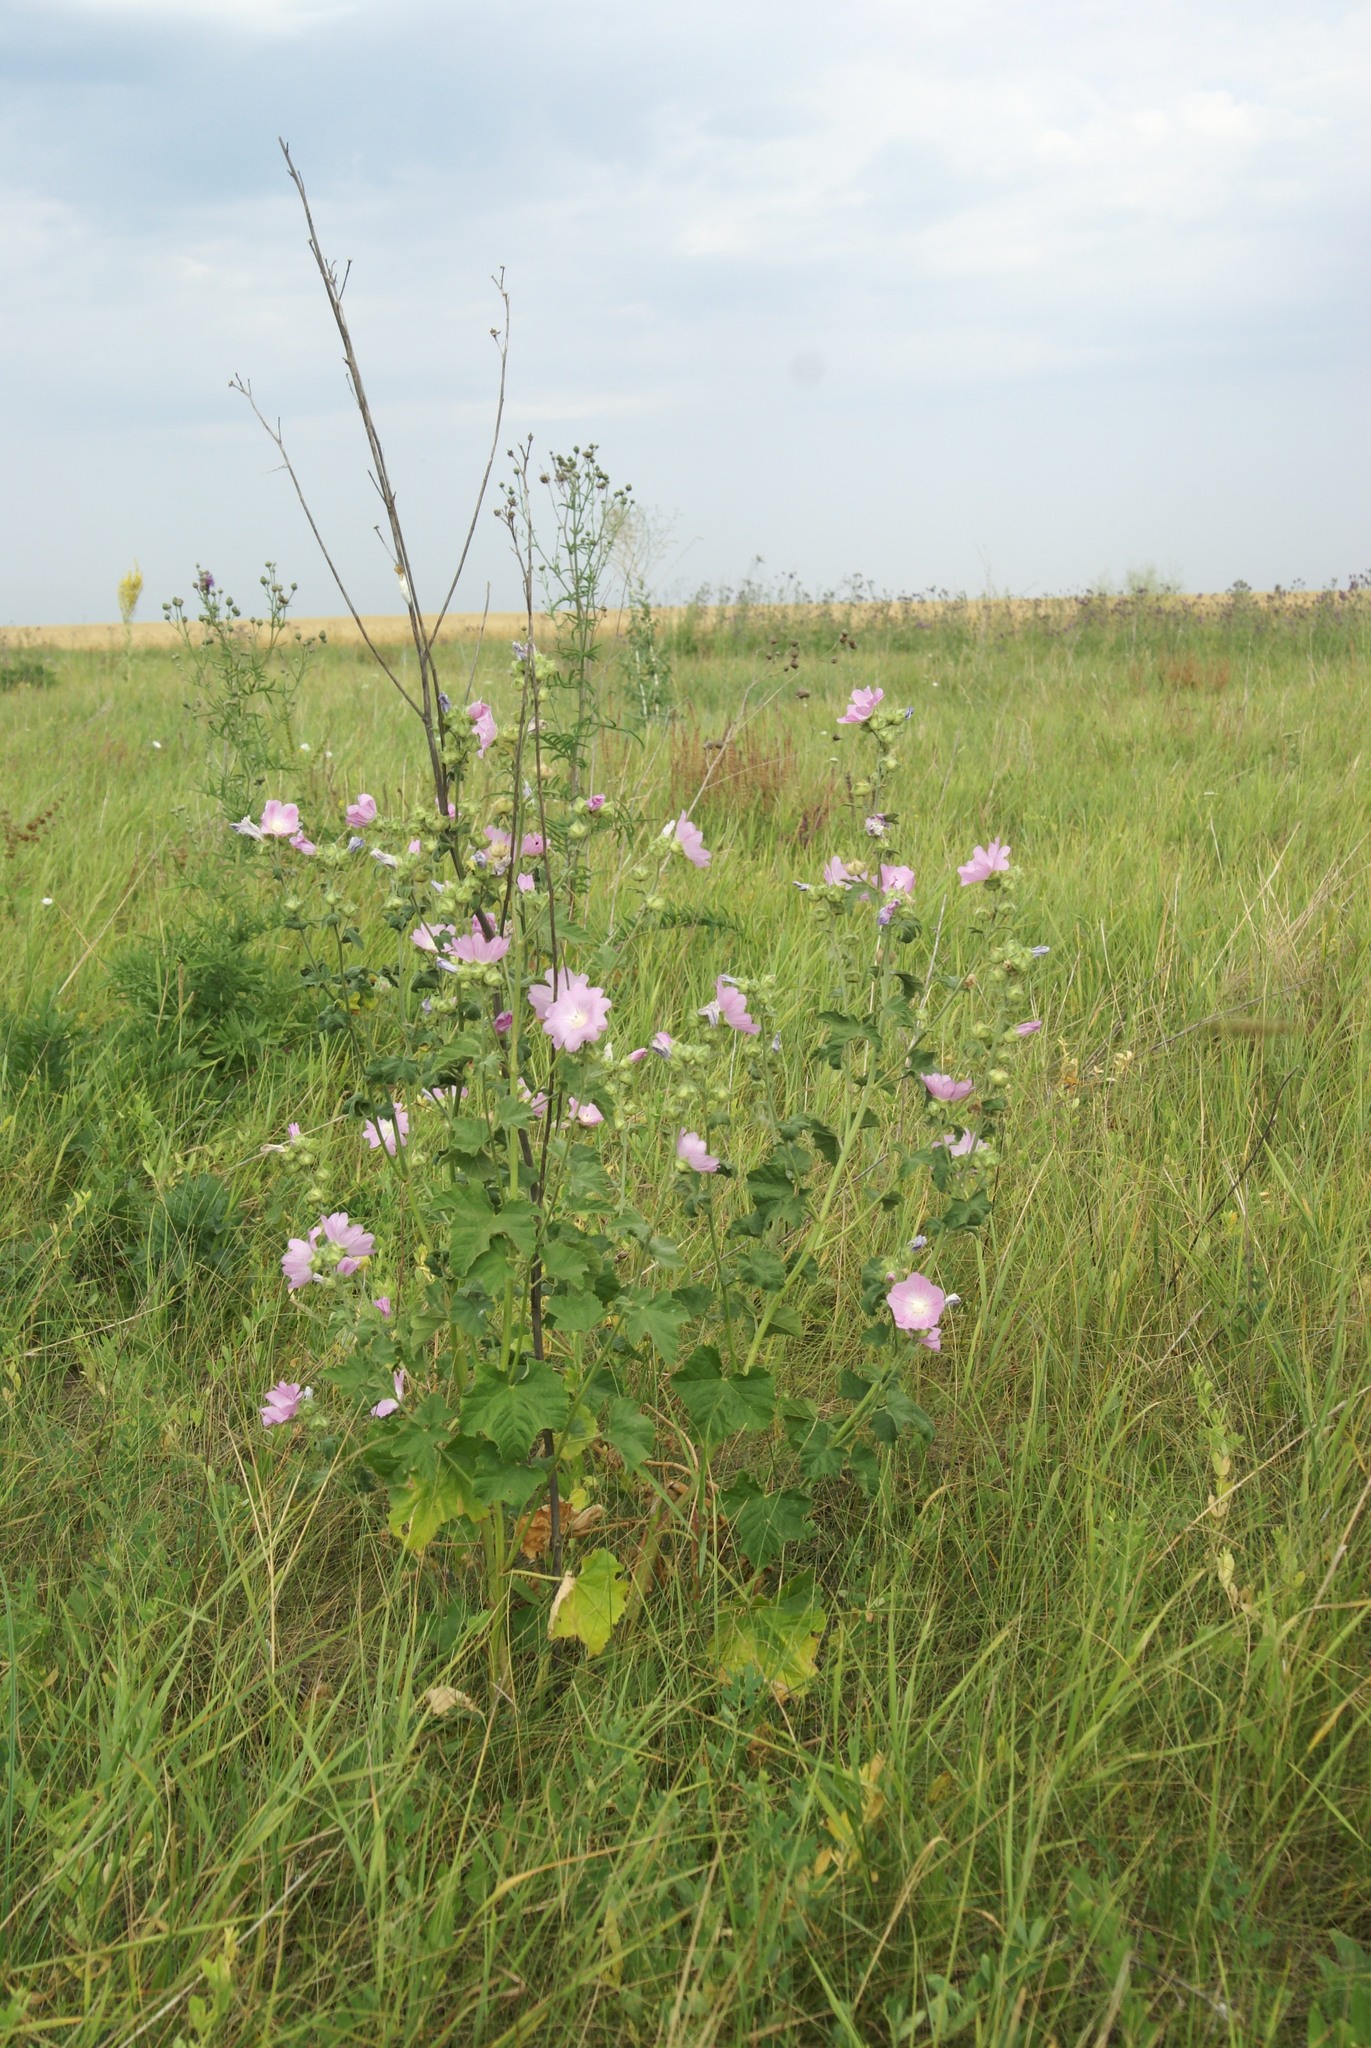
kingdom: Plantae
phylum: Tracheophyta
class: Magnoliopsida
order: Malvales
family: Malvaceae
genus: Malva
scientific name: Malva thuringiaca
